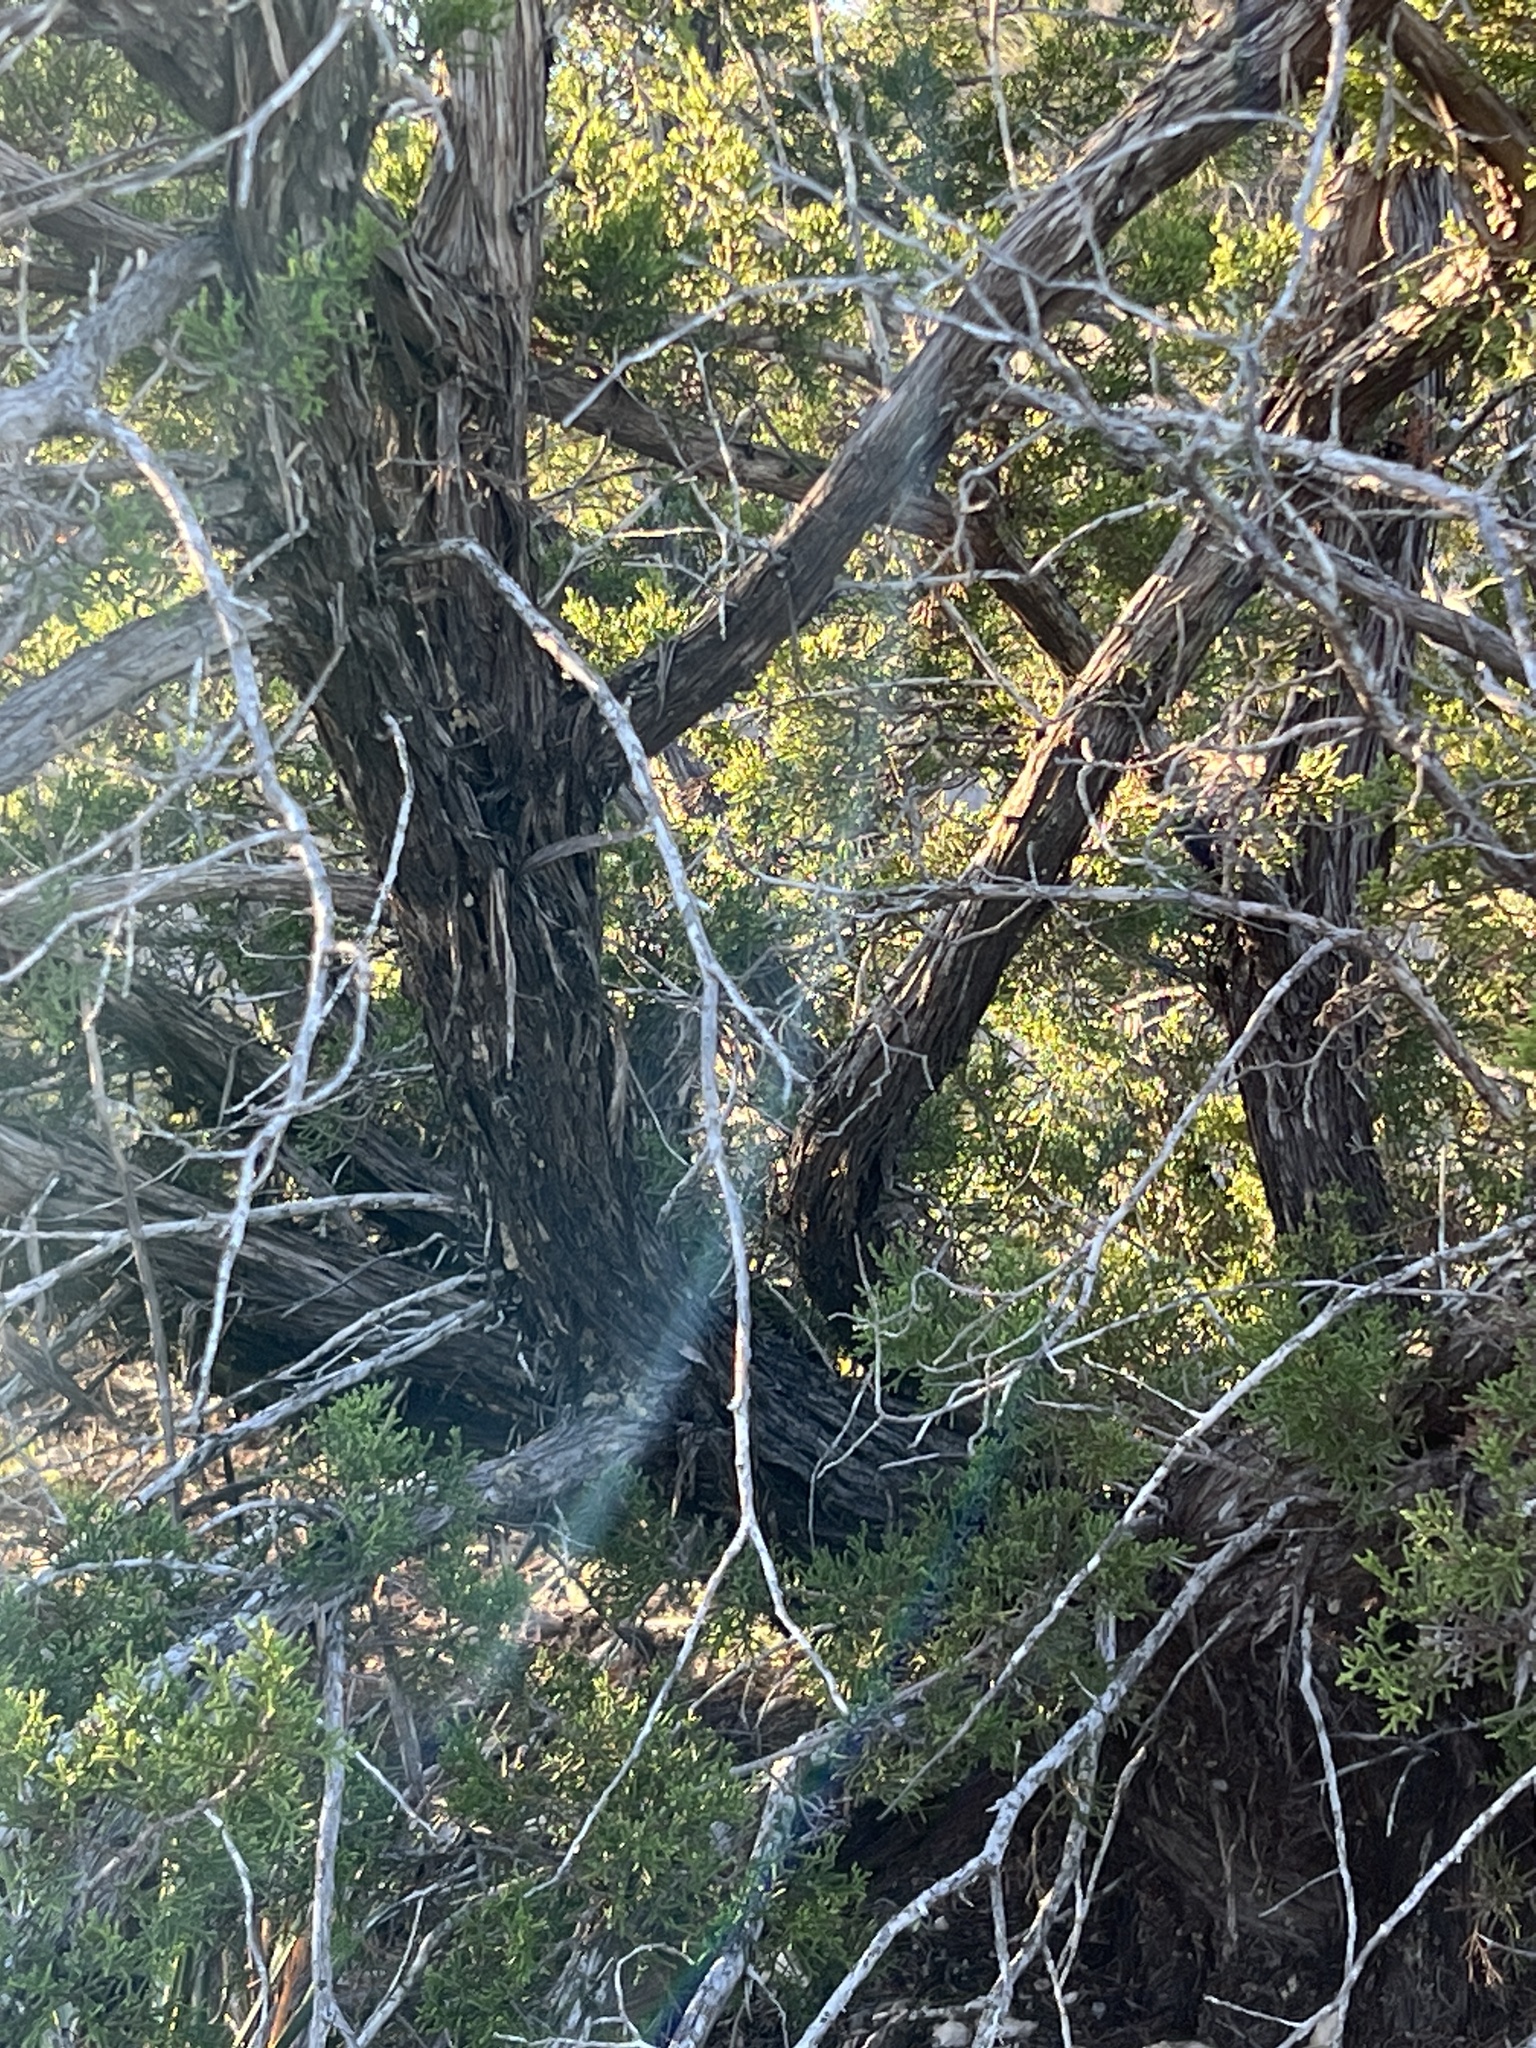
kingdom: Plantae
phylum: Tracheophyta
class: Pinopsida
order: Pinales
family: Cupressaceae
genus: Juniperus
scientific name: Juniperus ashei
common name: Mexican juniper
